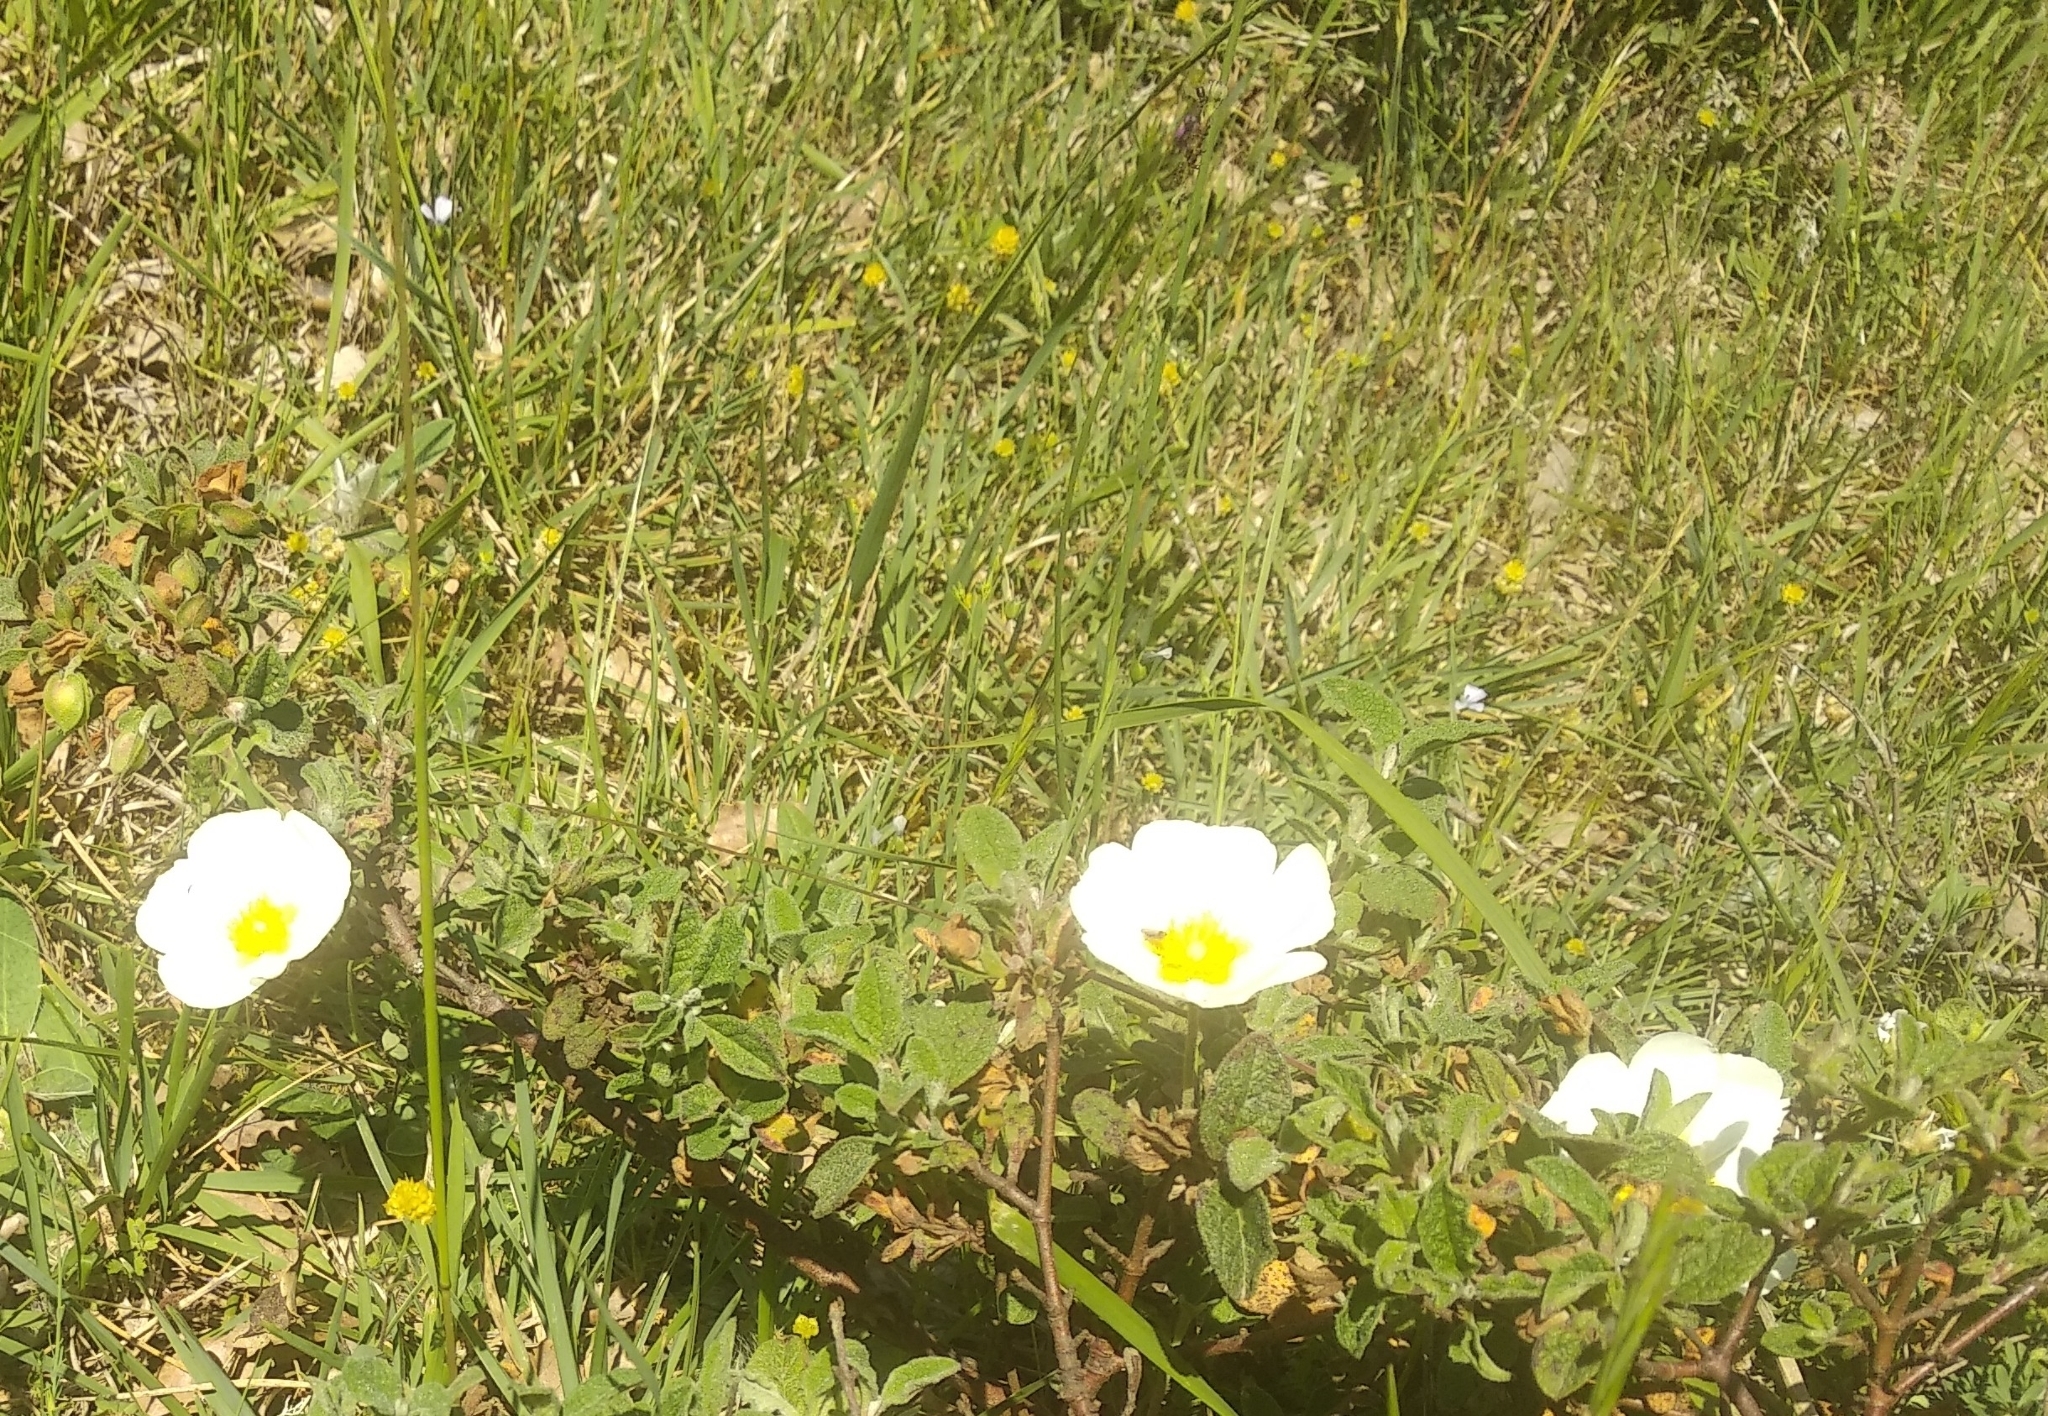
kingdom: Plantae
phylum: Tracheophyta
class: Magnoliopsida
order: Malvales
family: Cistaceae
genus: Cistus
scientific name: Cistus salviifolius
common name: Salvia cistus
